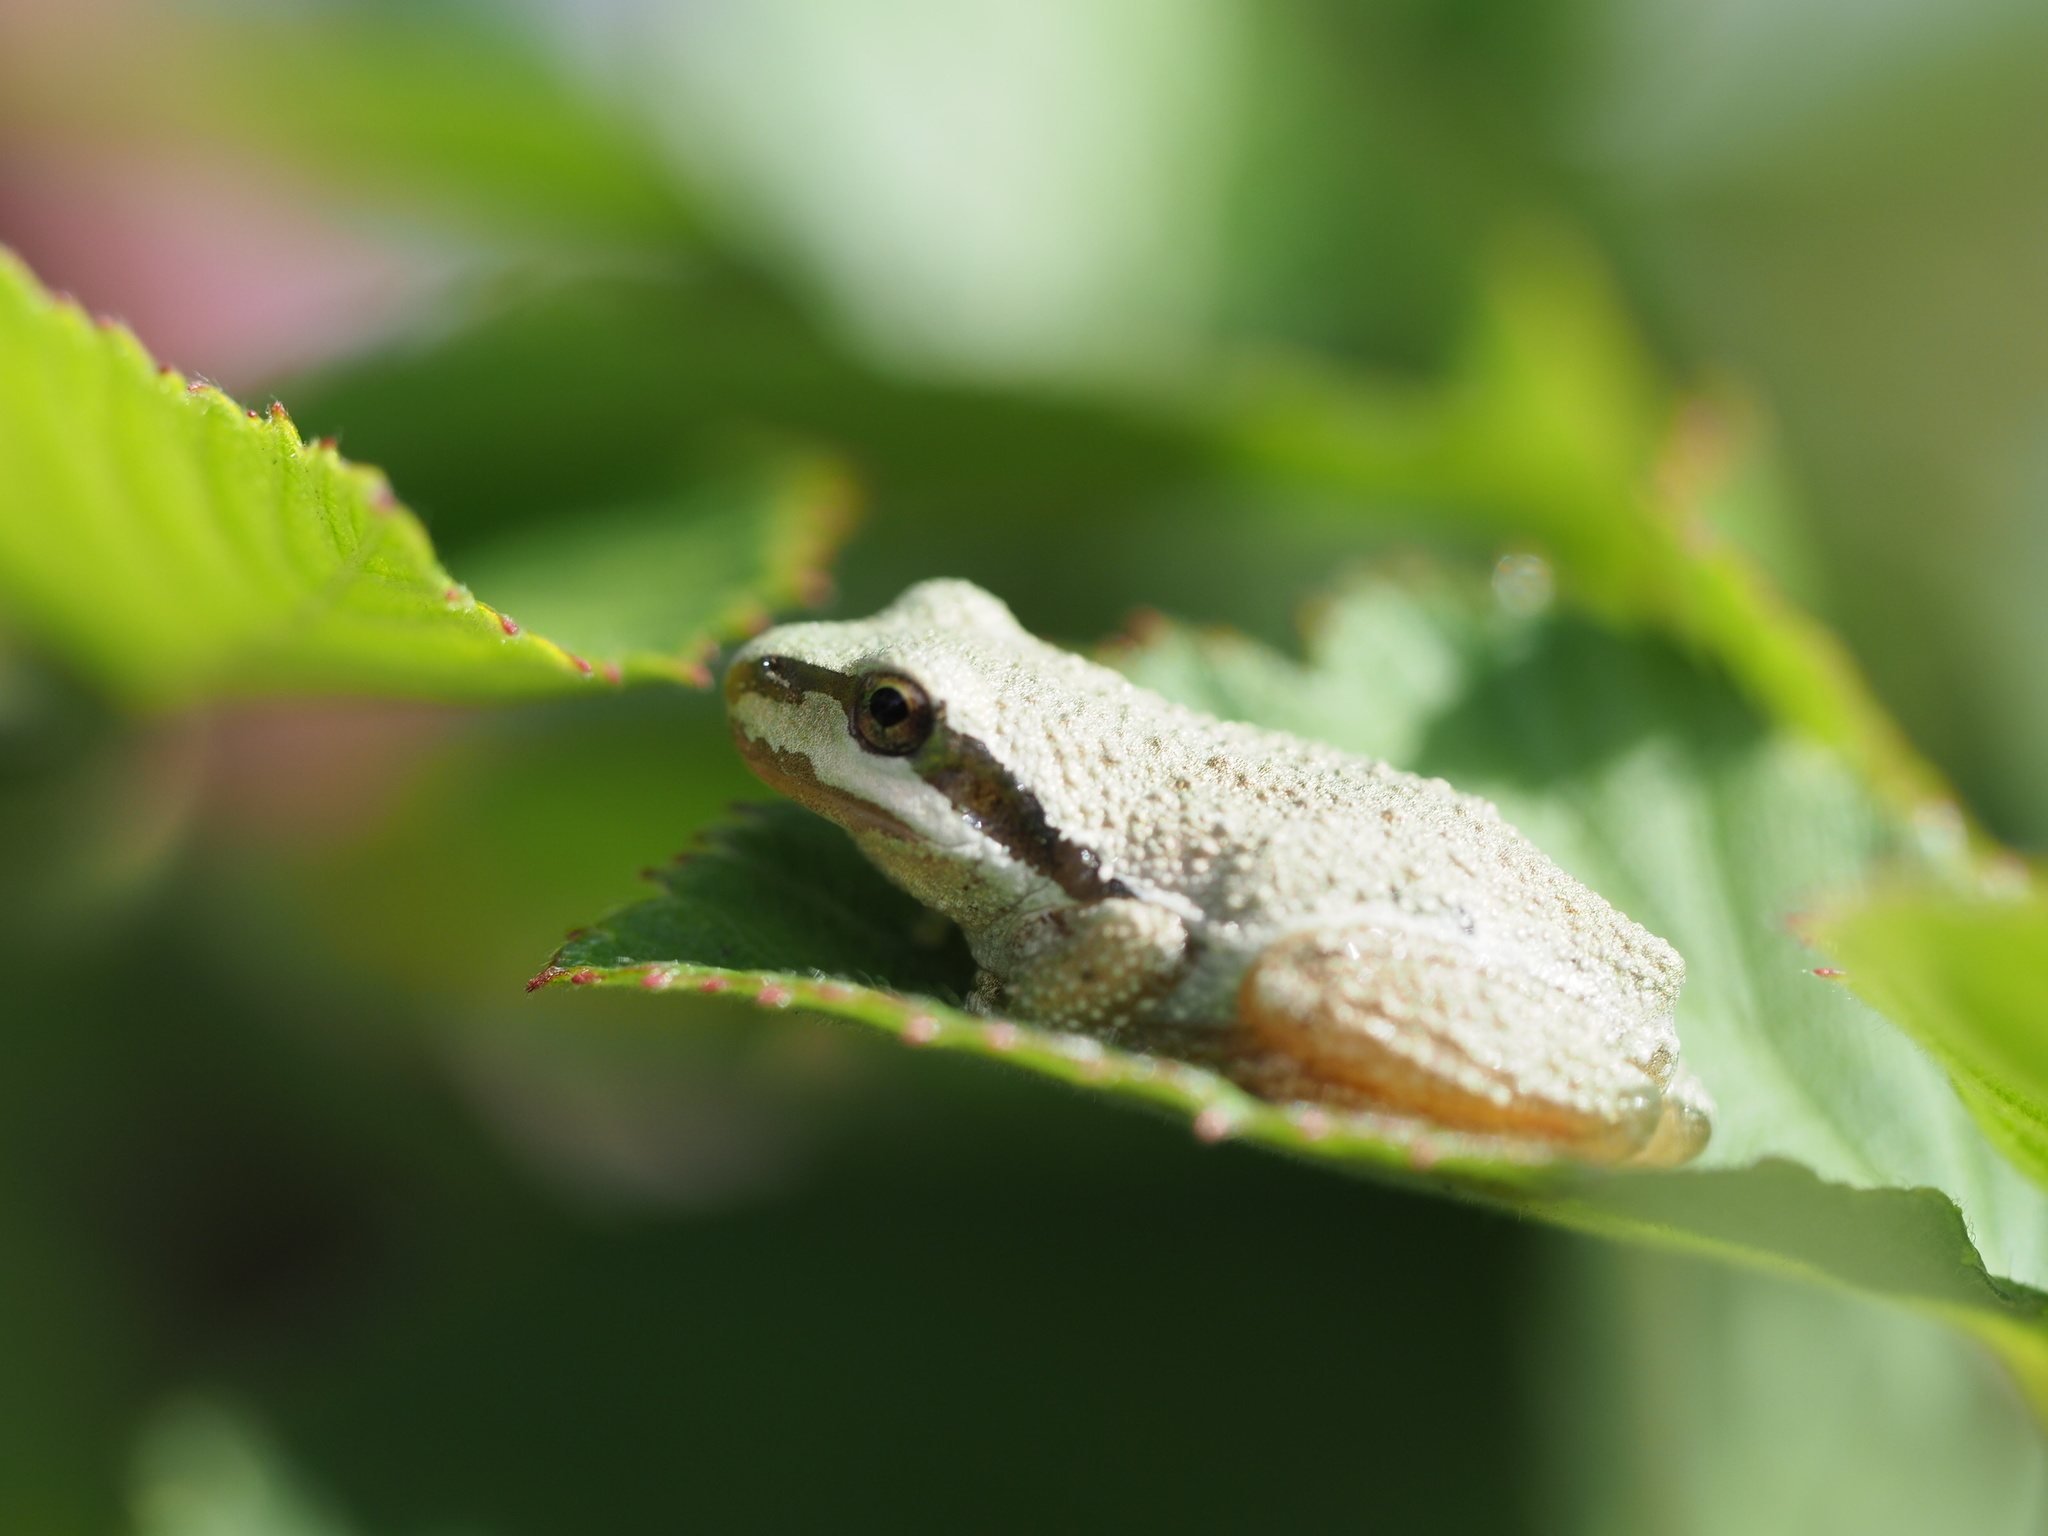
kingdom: Animalia
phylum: Chordata
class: Amphibia
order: Anura
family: Hylidae
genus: Pseudacris
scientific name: Pseudacris regilla
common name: Pacific chorus frog
